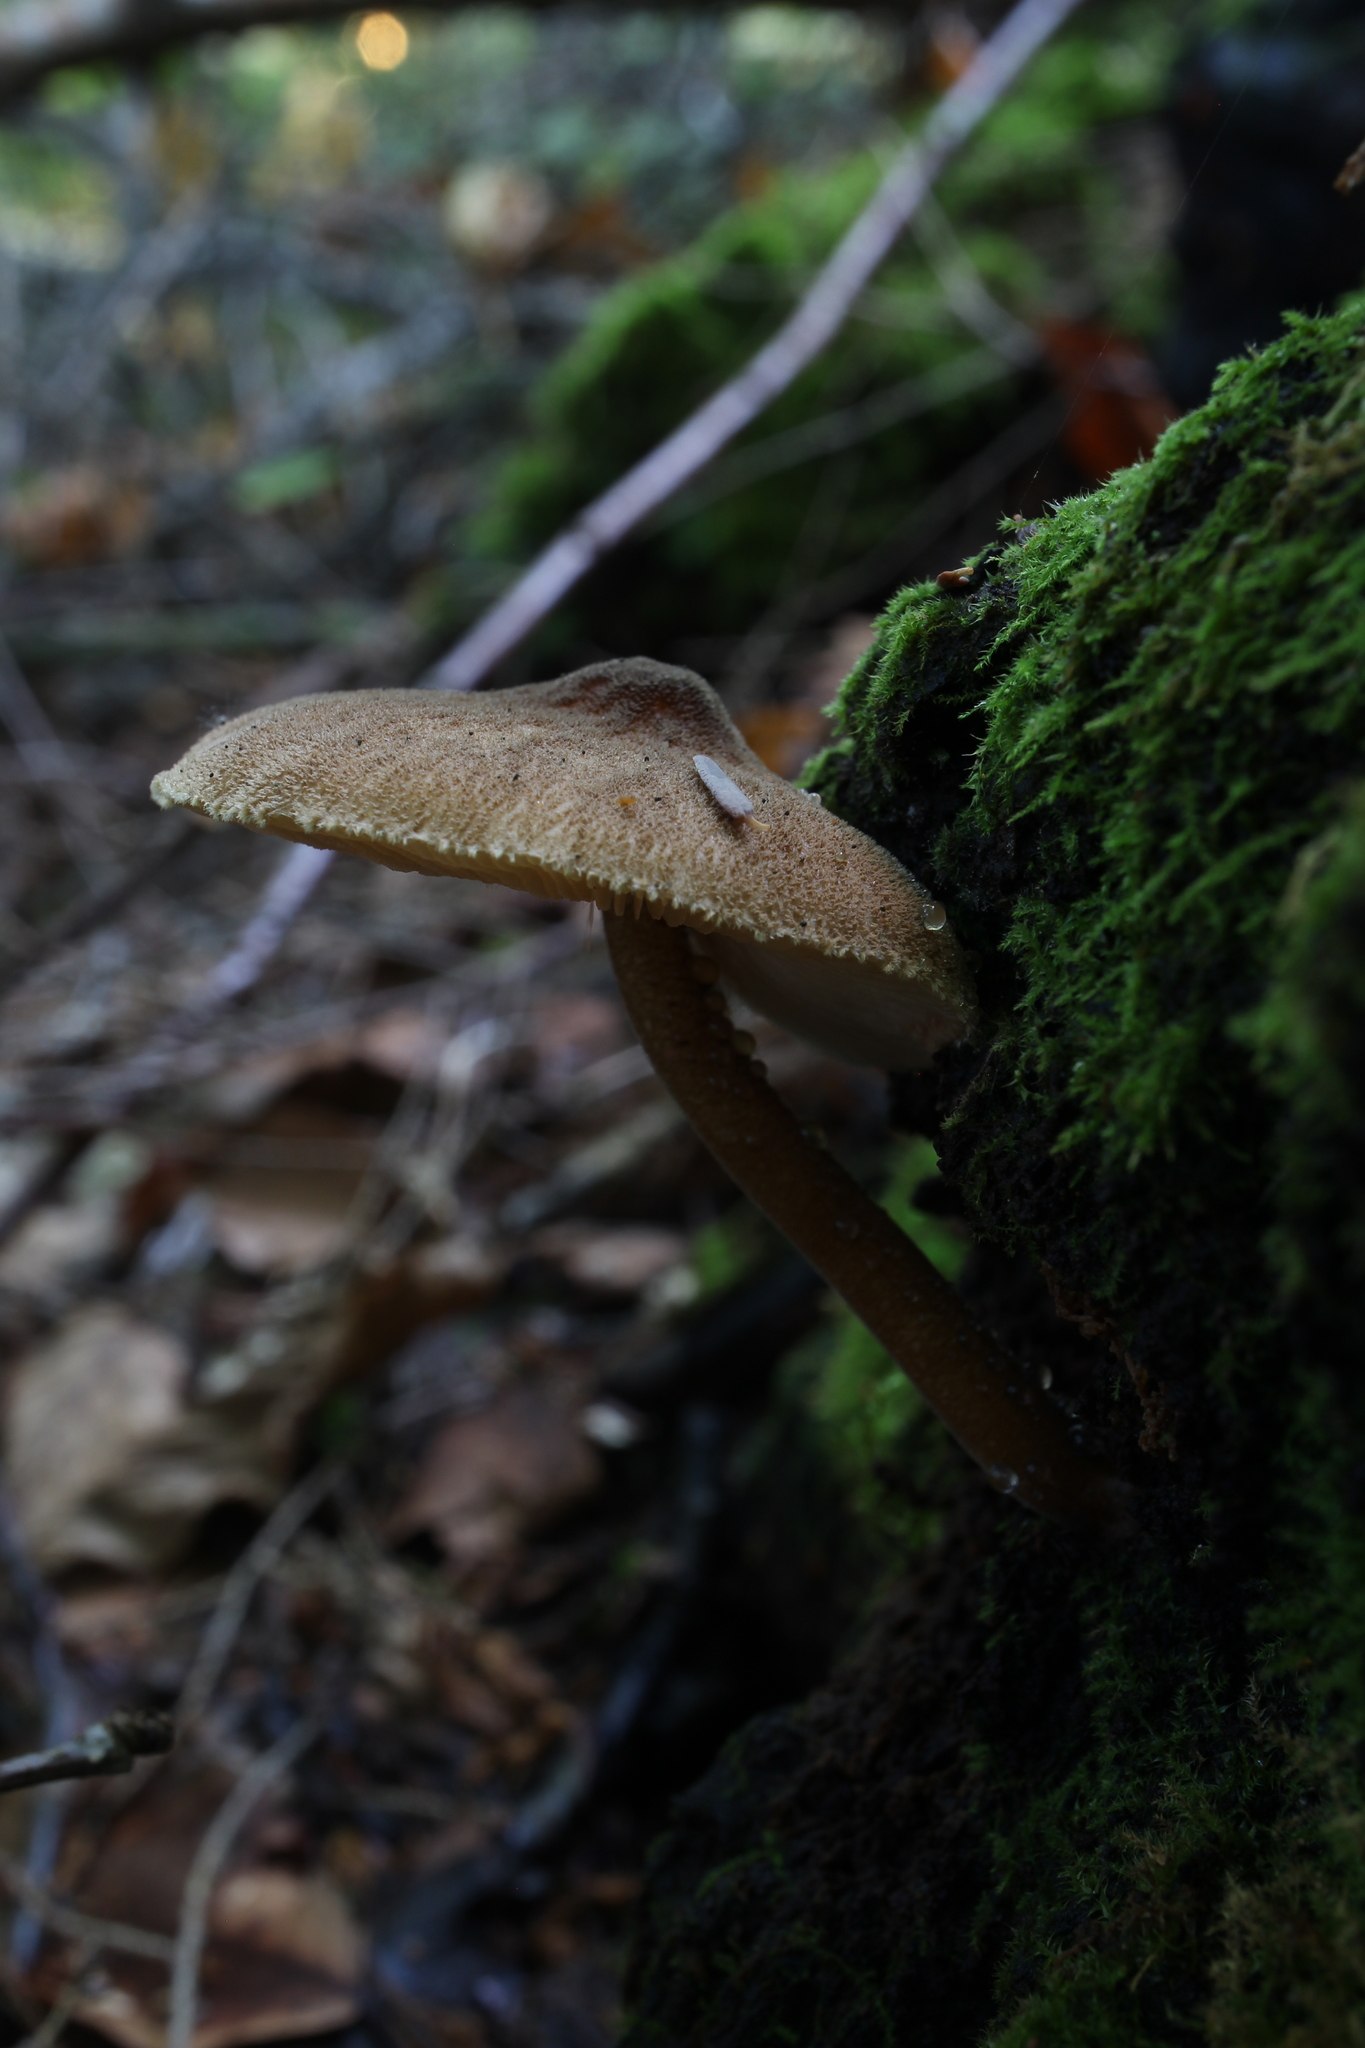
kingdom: Fungi
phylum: Basidiomycota
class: Agaricomycetes
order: Agaricales
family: Pluteaceae
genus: Pluteus
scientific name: Pluteus granularis
